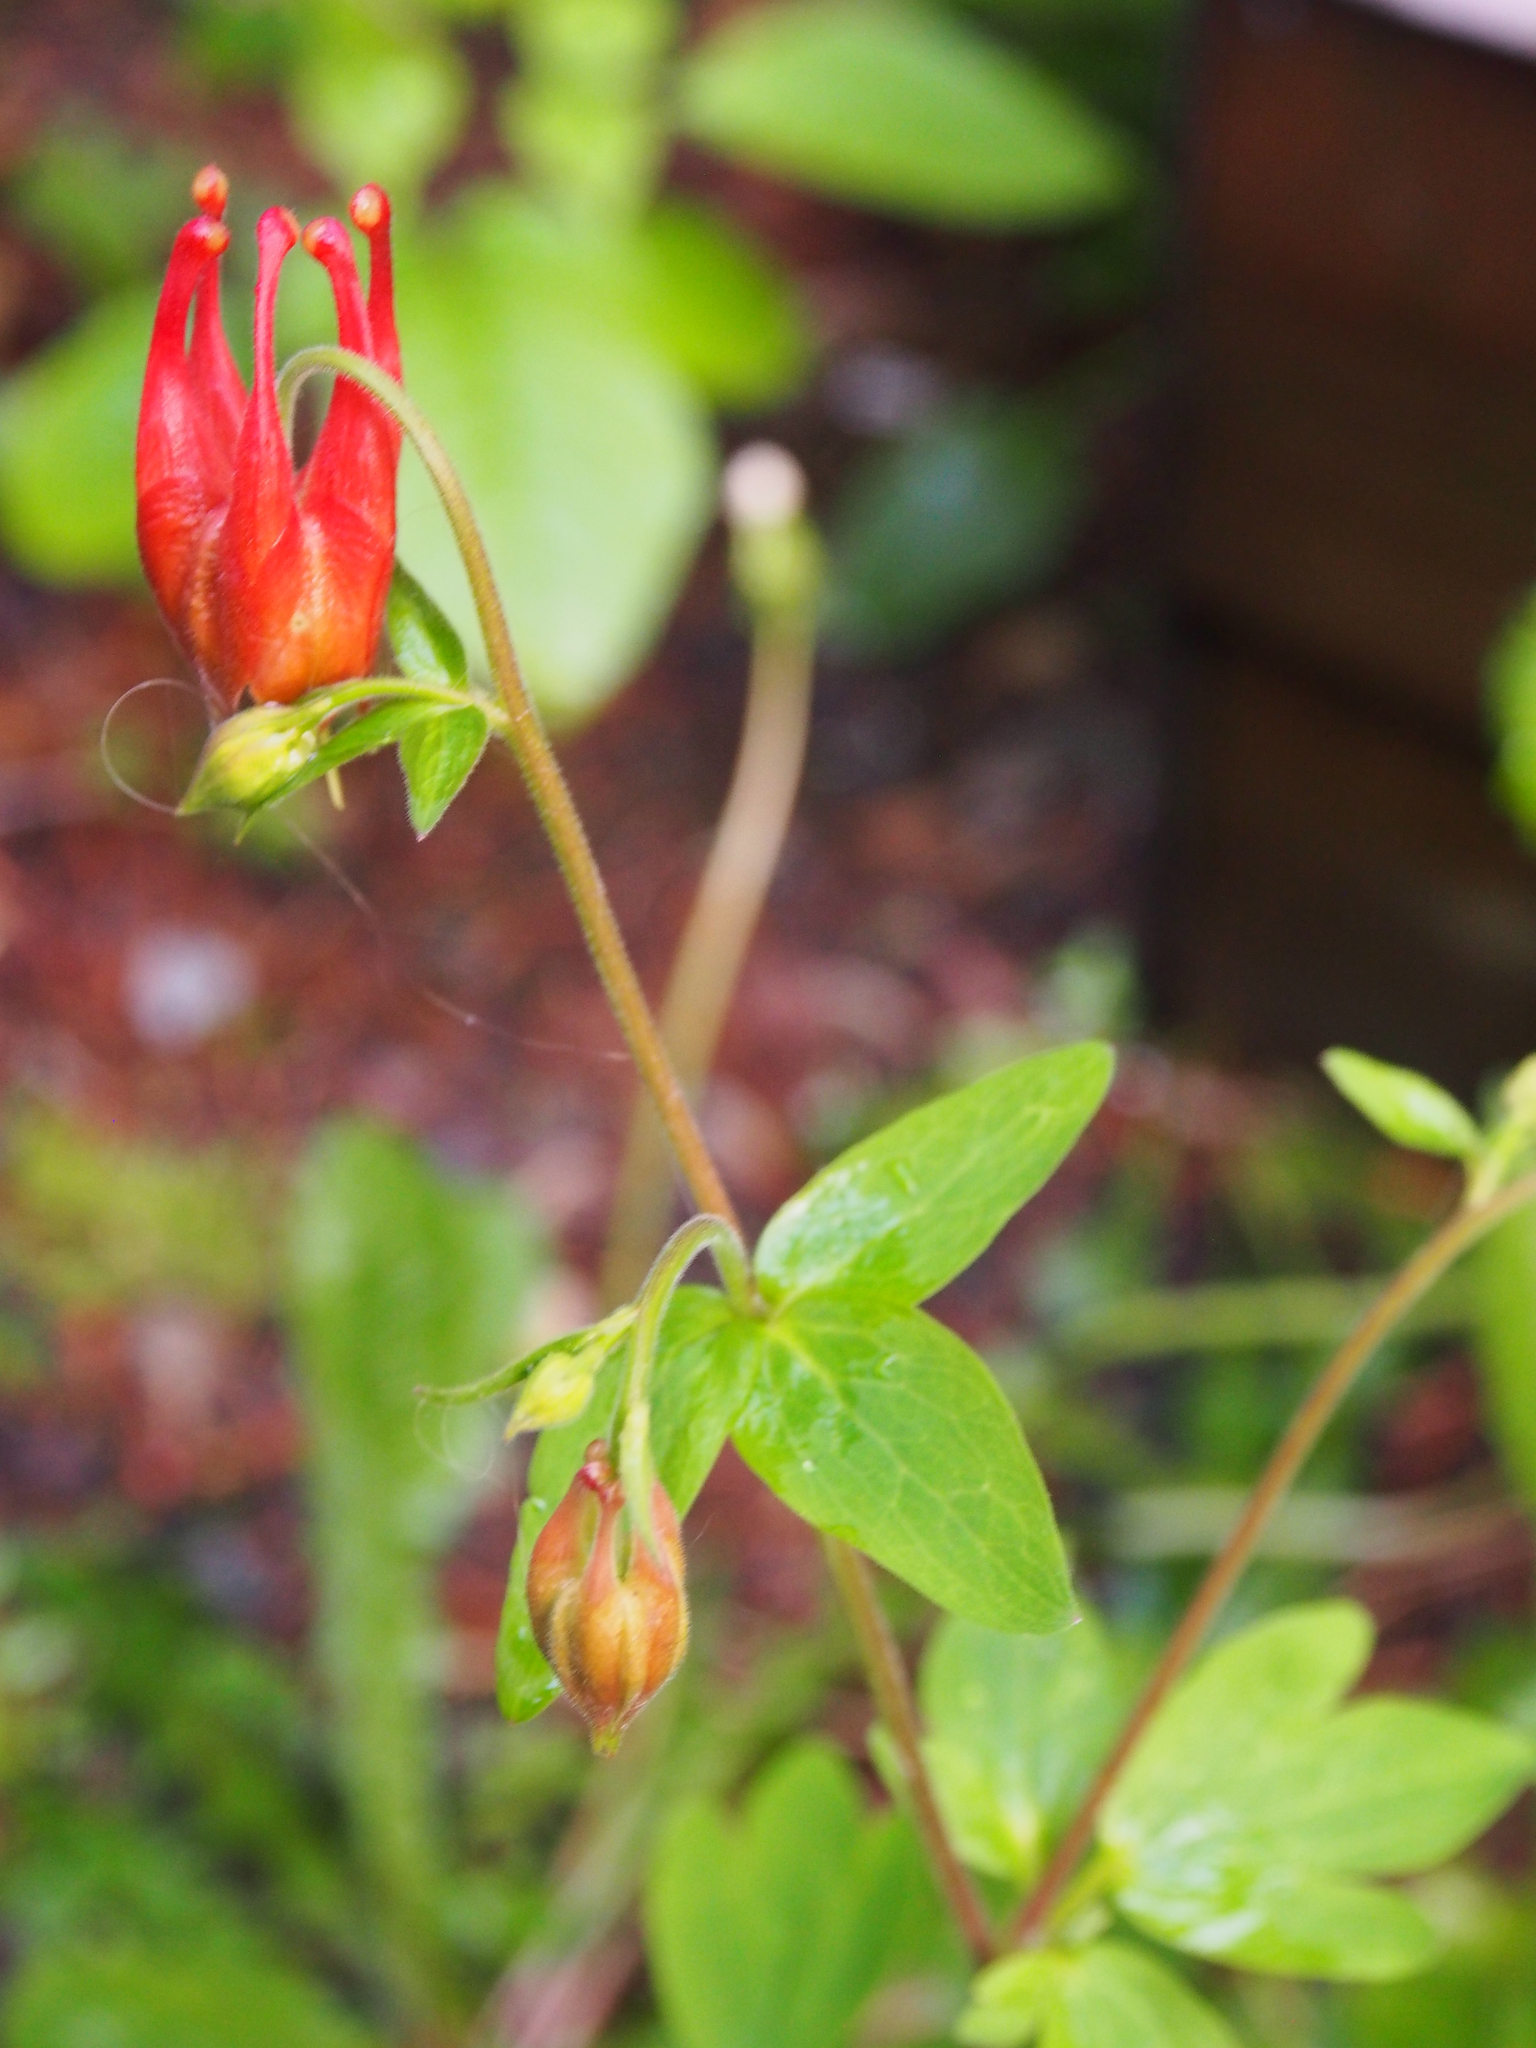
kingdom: Plantae
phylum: Tracheophyta
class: Magnoliopsida
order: Ranunculales
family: Ranunculaceae
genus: Aquilegia
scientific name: Aquilegia canadensis
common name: American columbine
